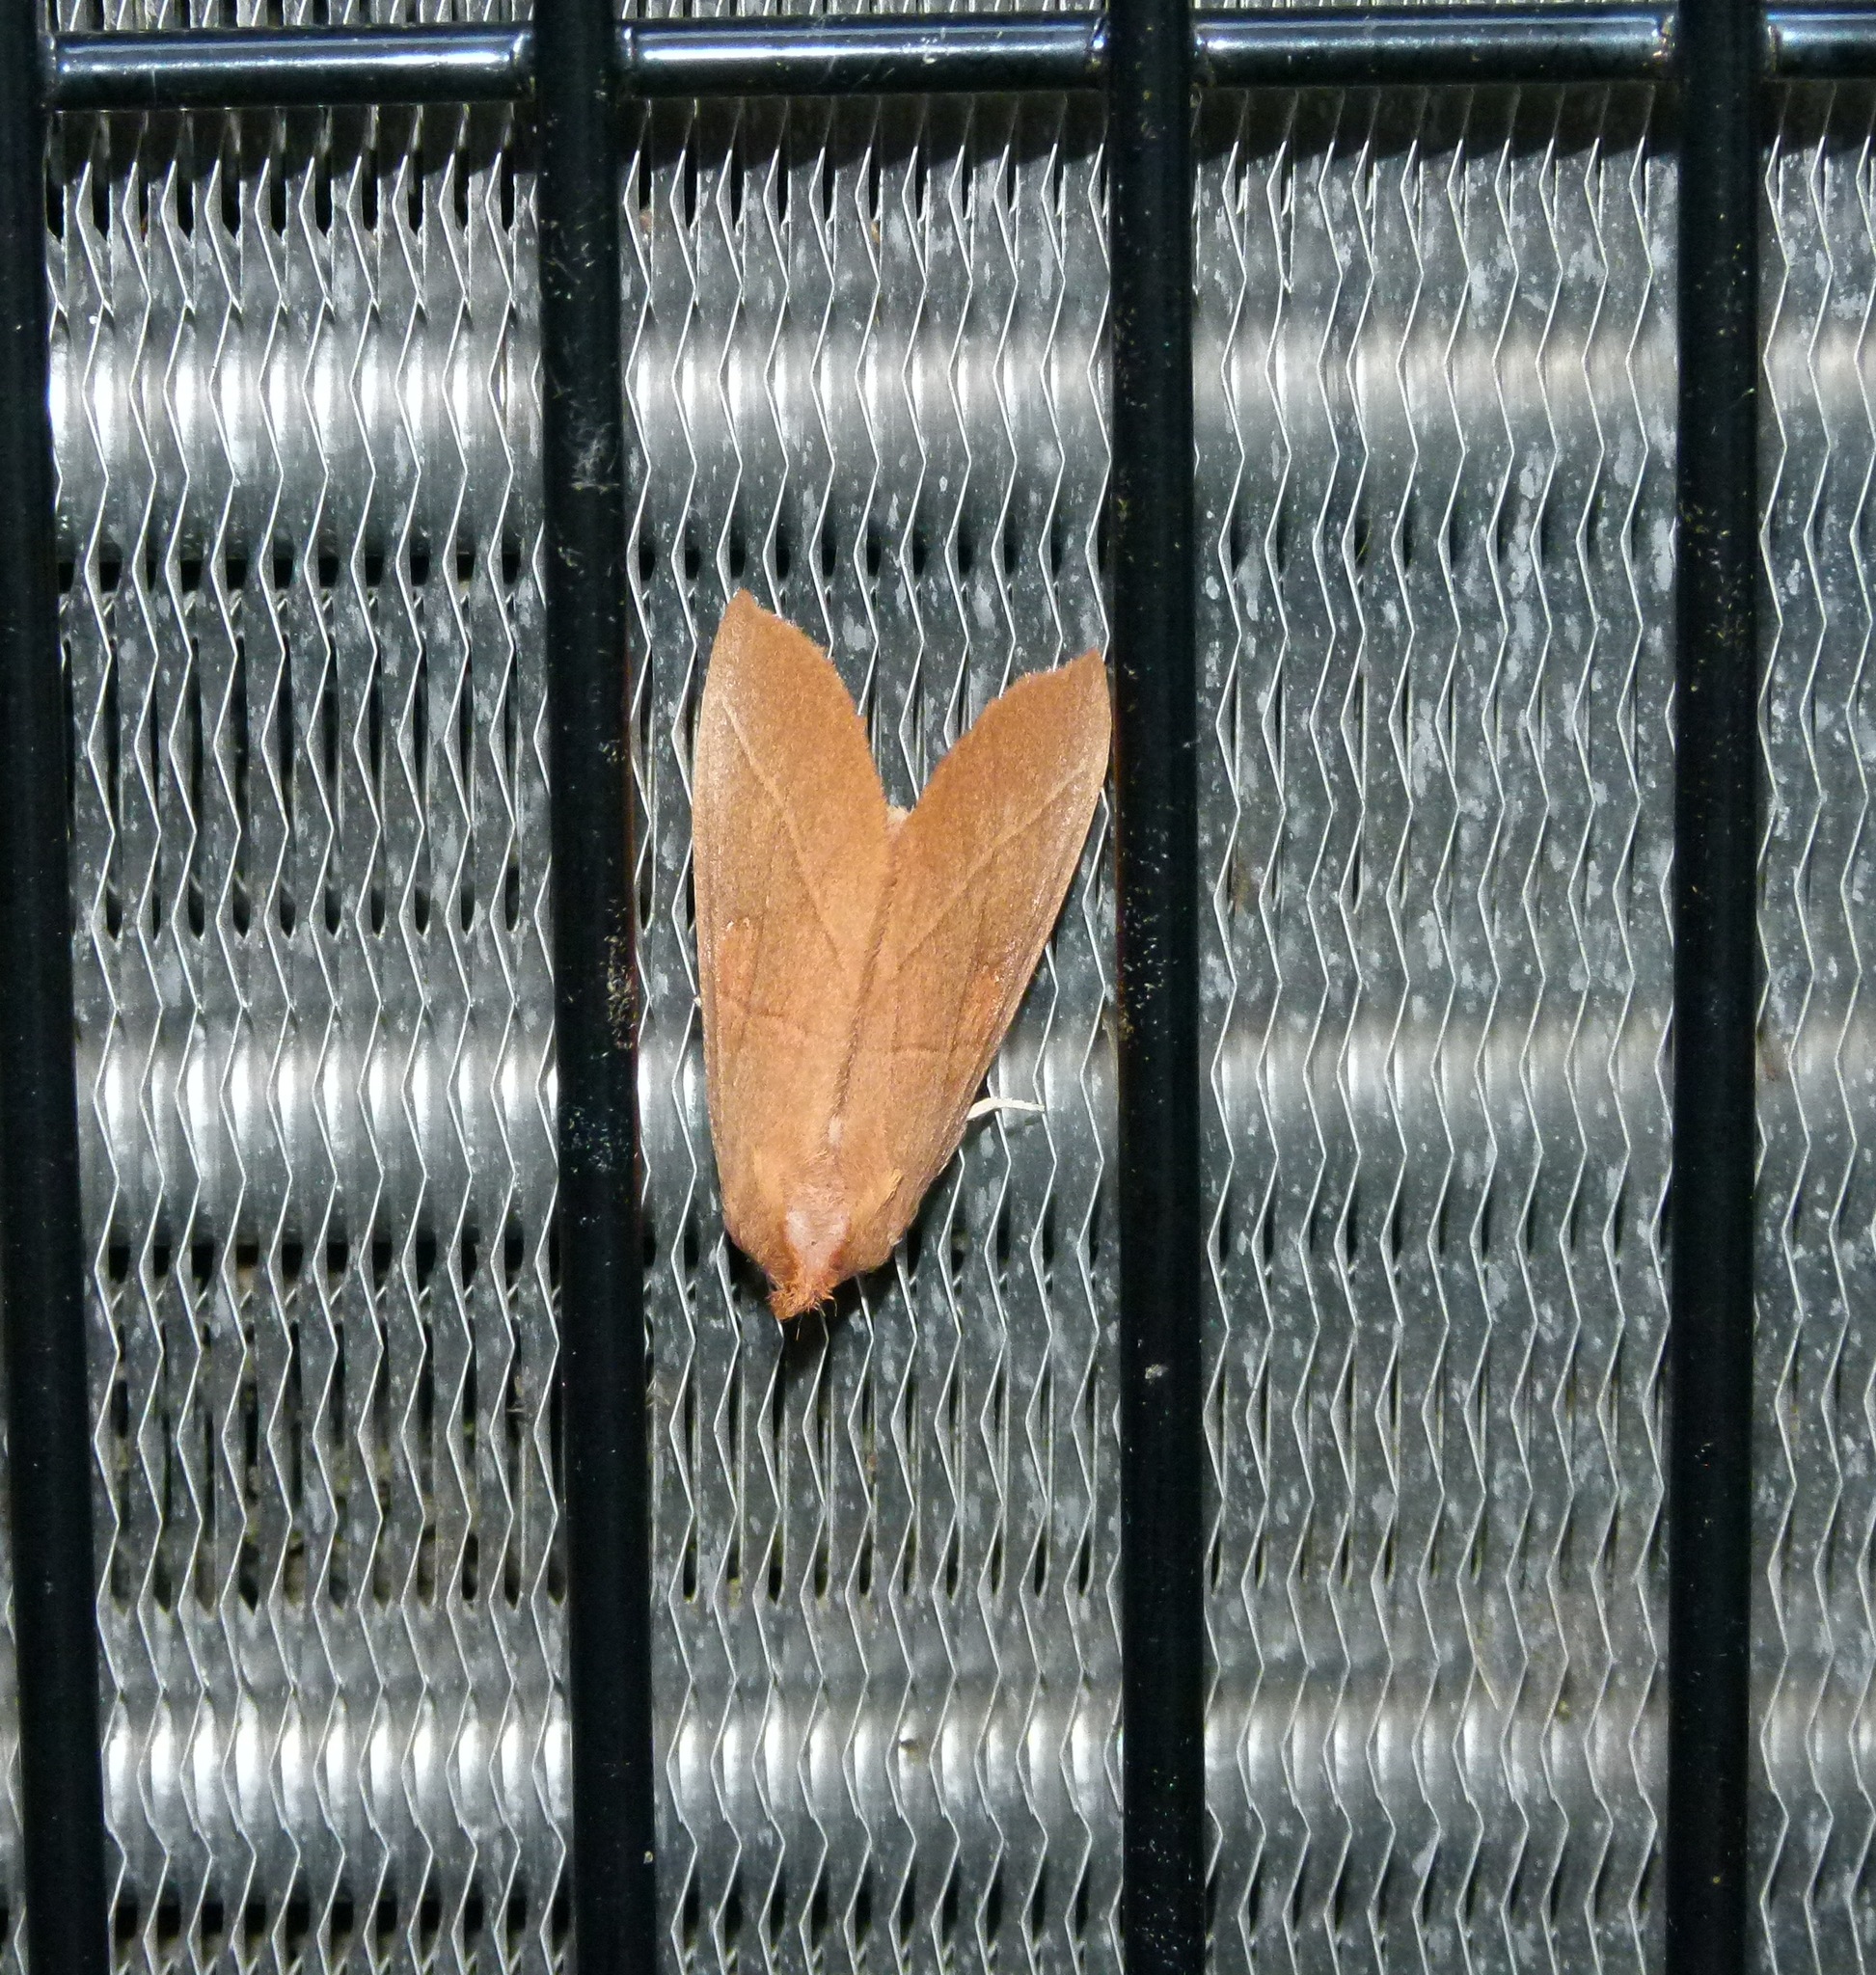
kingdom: Animalia
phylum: Arthropoda
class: Insecta
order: Lepidoptera
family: Notodontidae
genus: Nadata
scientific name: Nadata gibbosa
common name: White-dotted prominent
